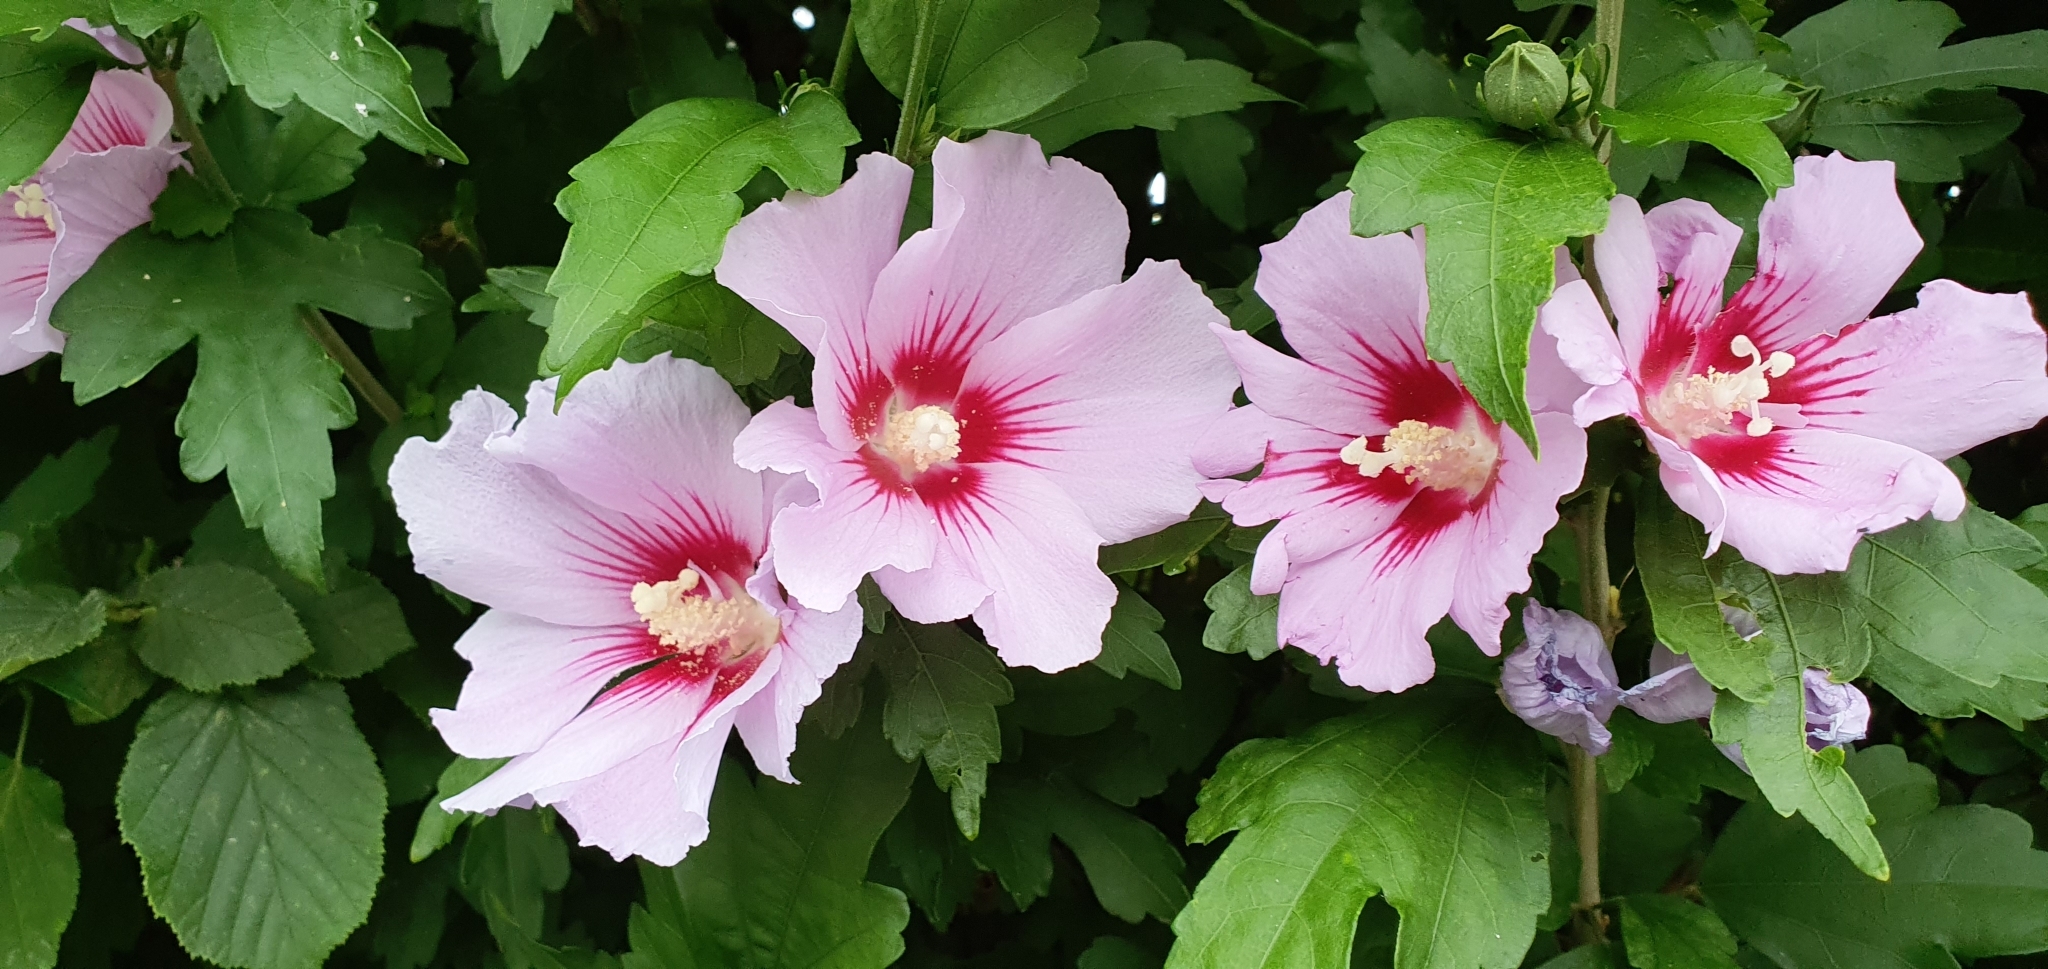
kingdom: Plantae
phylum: Tracheophyta
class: Magnoliopsida
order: Malvales
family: Malvaceae
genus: Hibiscus
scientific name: Hibiscus syriacus
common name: Syrian ketmia
